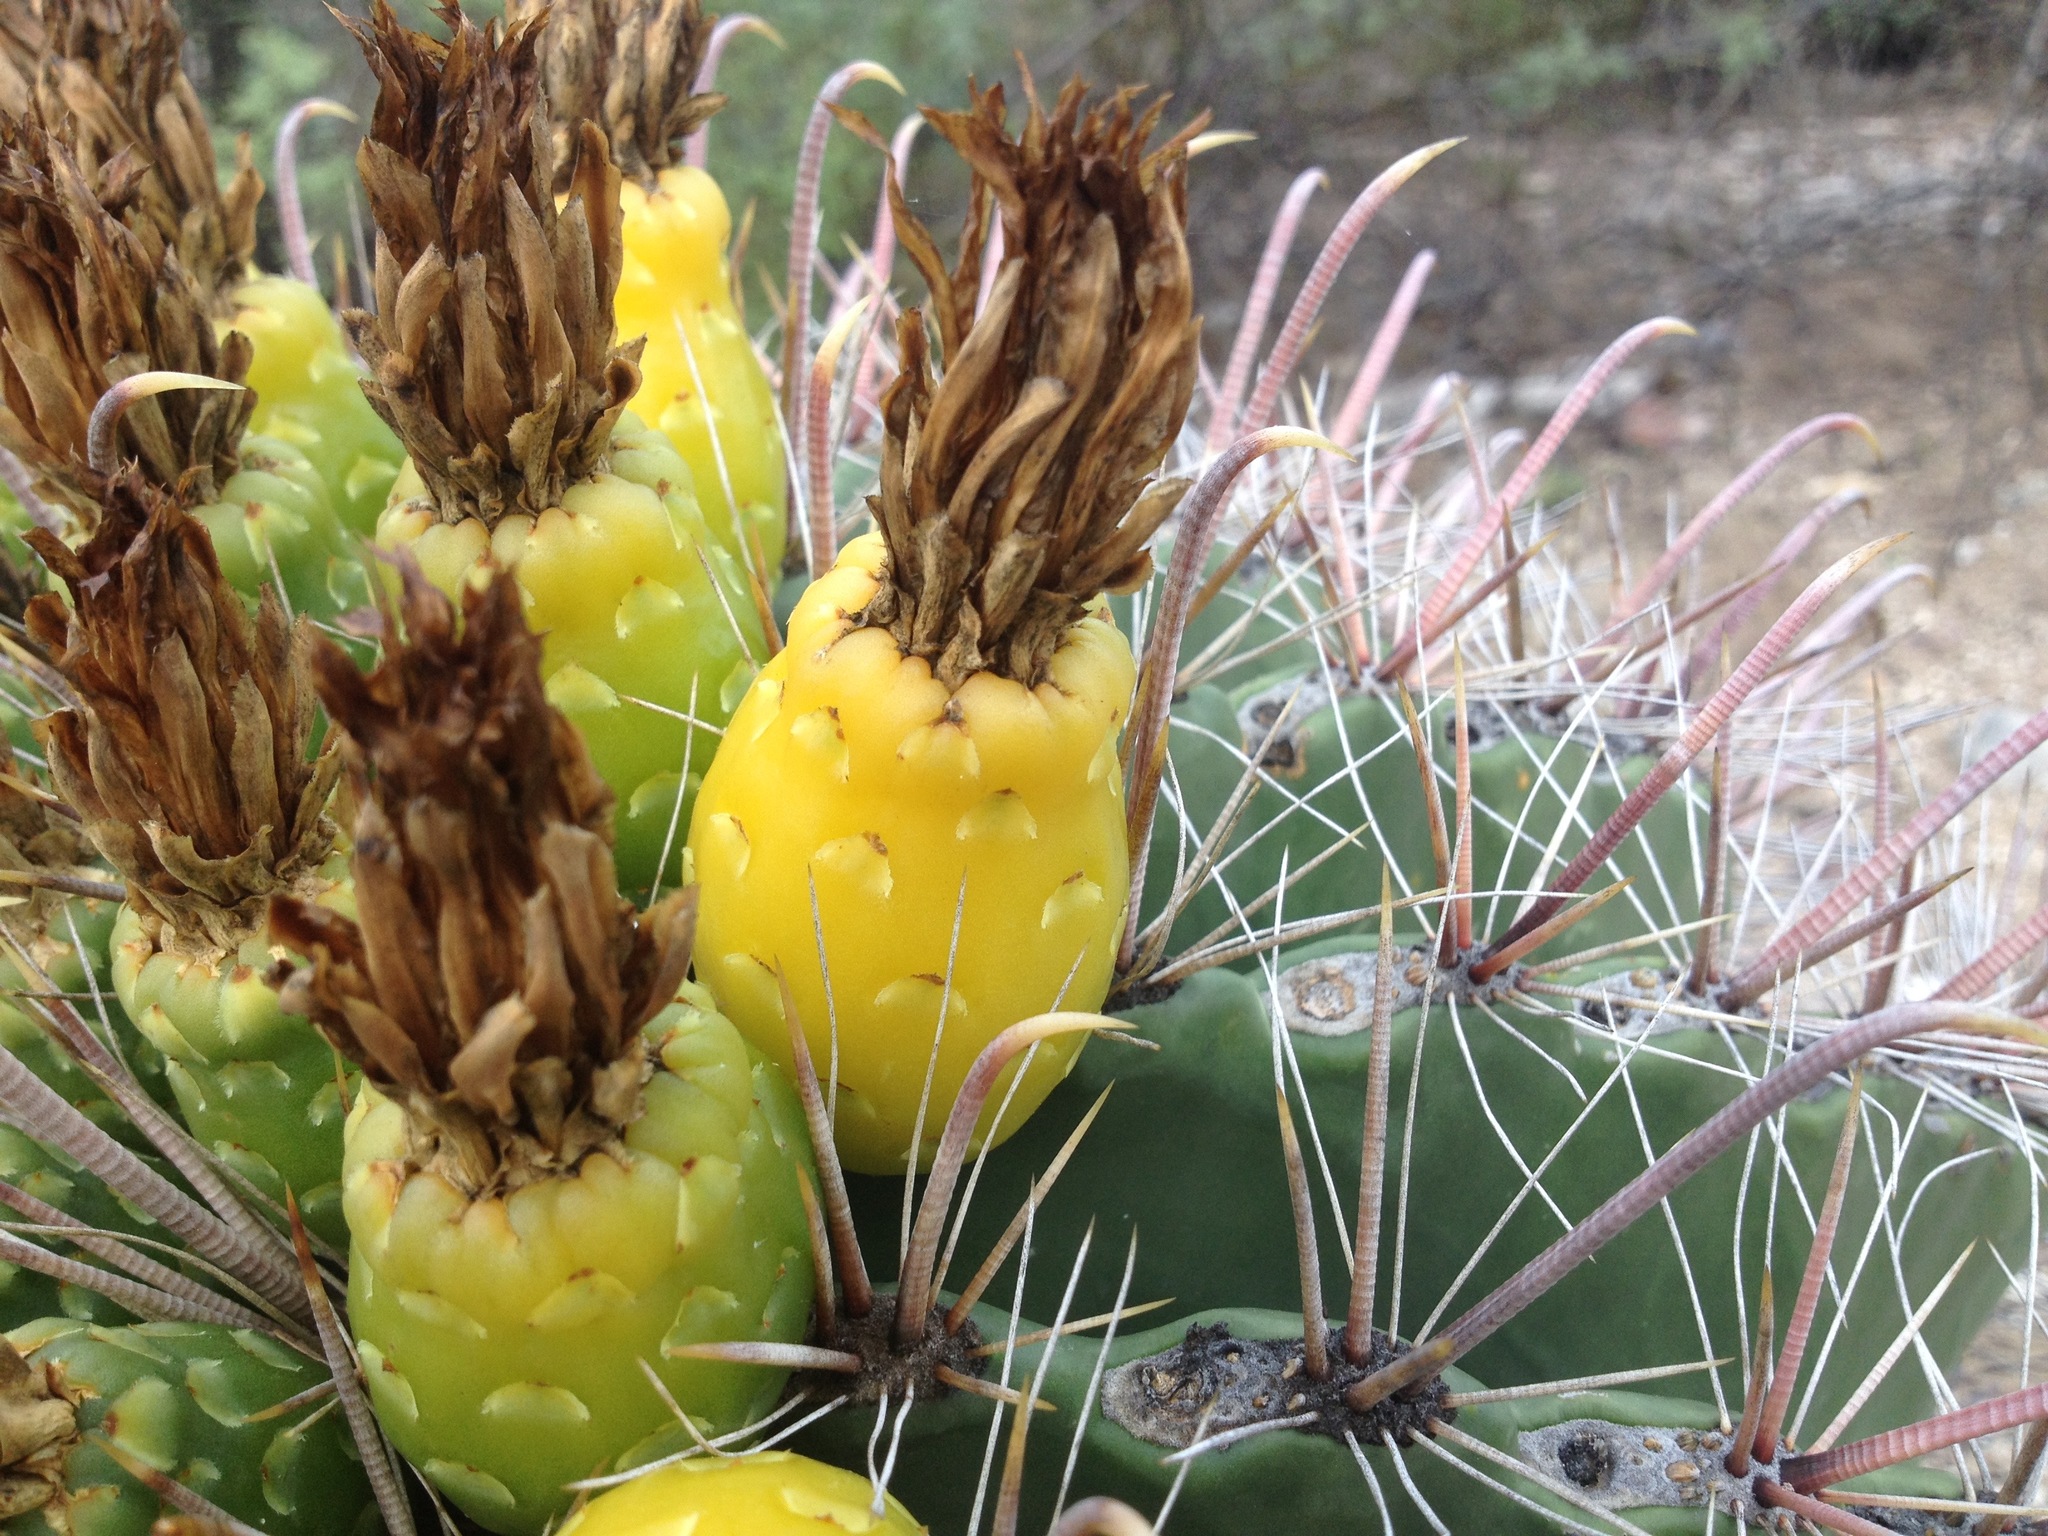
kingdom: Plantae
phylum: Tracheophyta
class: Magnoliopsida
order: Caryophyllales
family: Cactaceae
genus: Ferocactus
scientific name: Ferocactus wislizeni
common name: Candy barrel cactus
